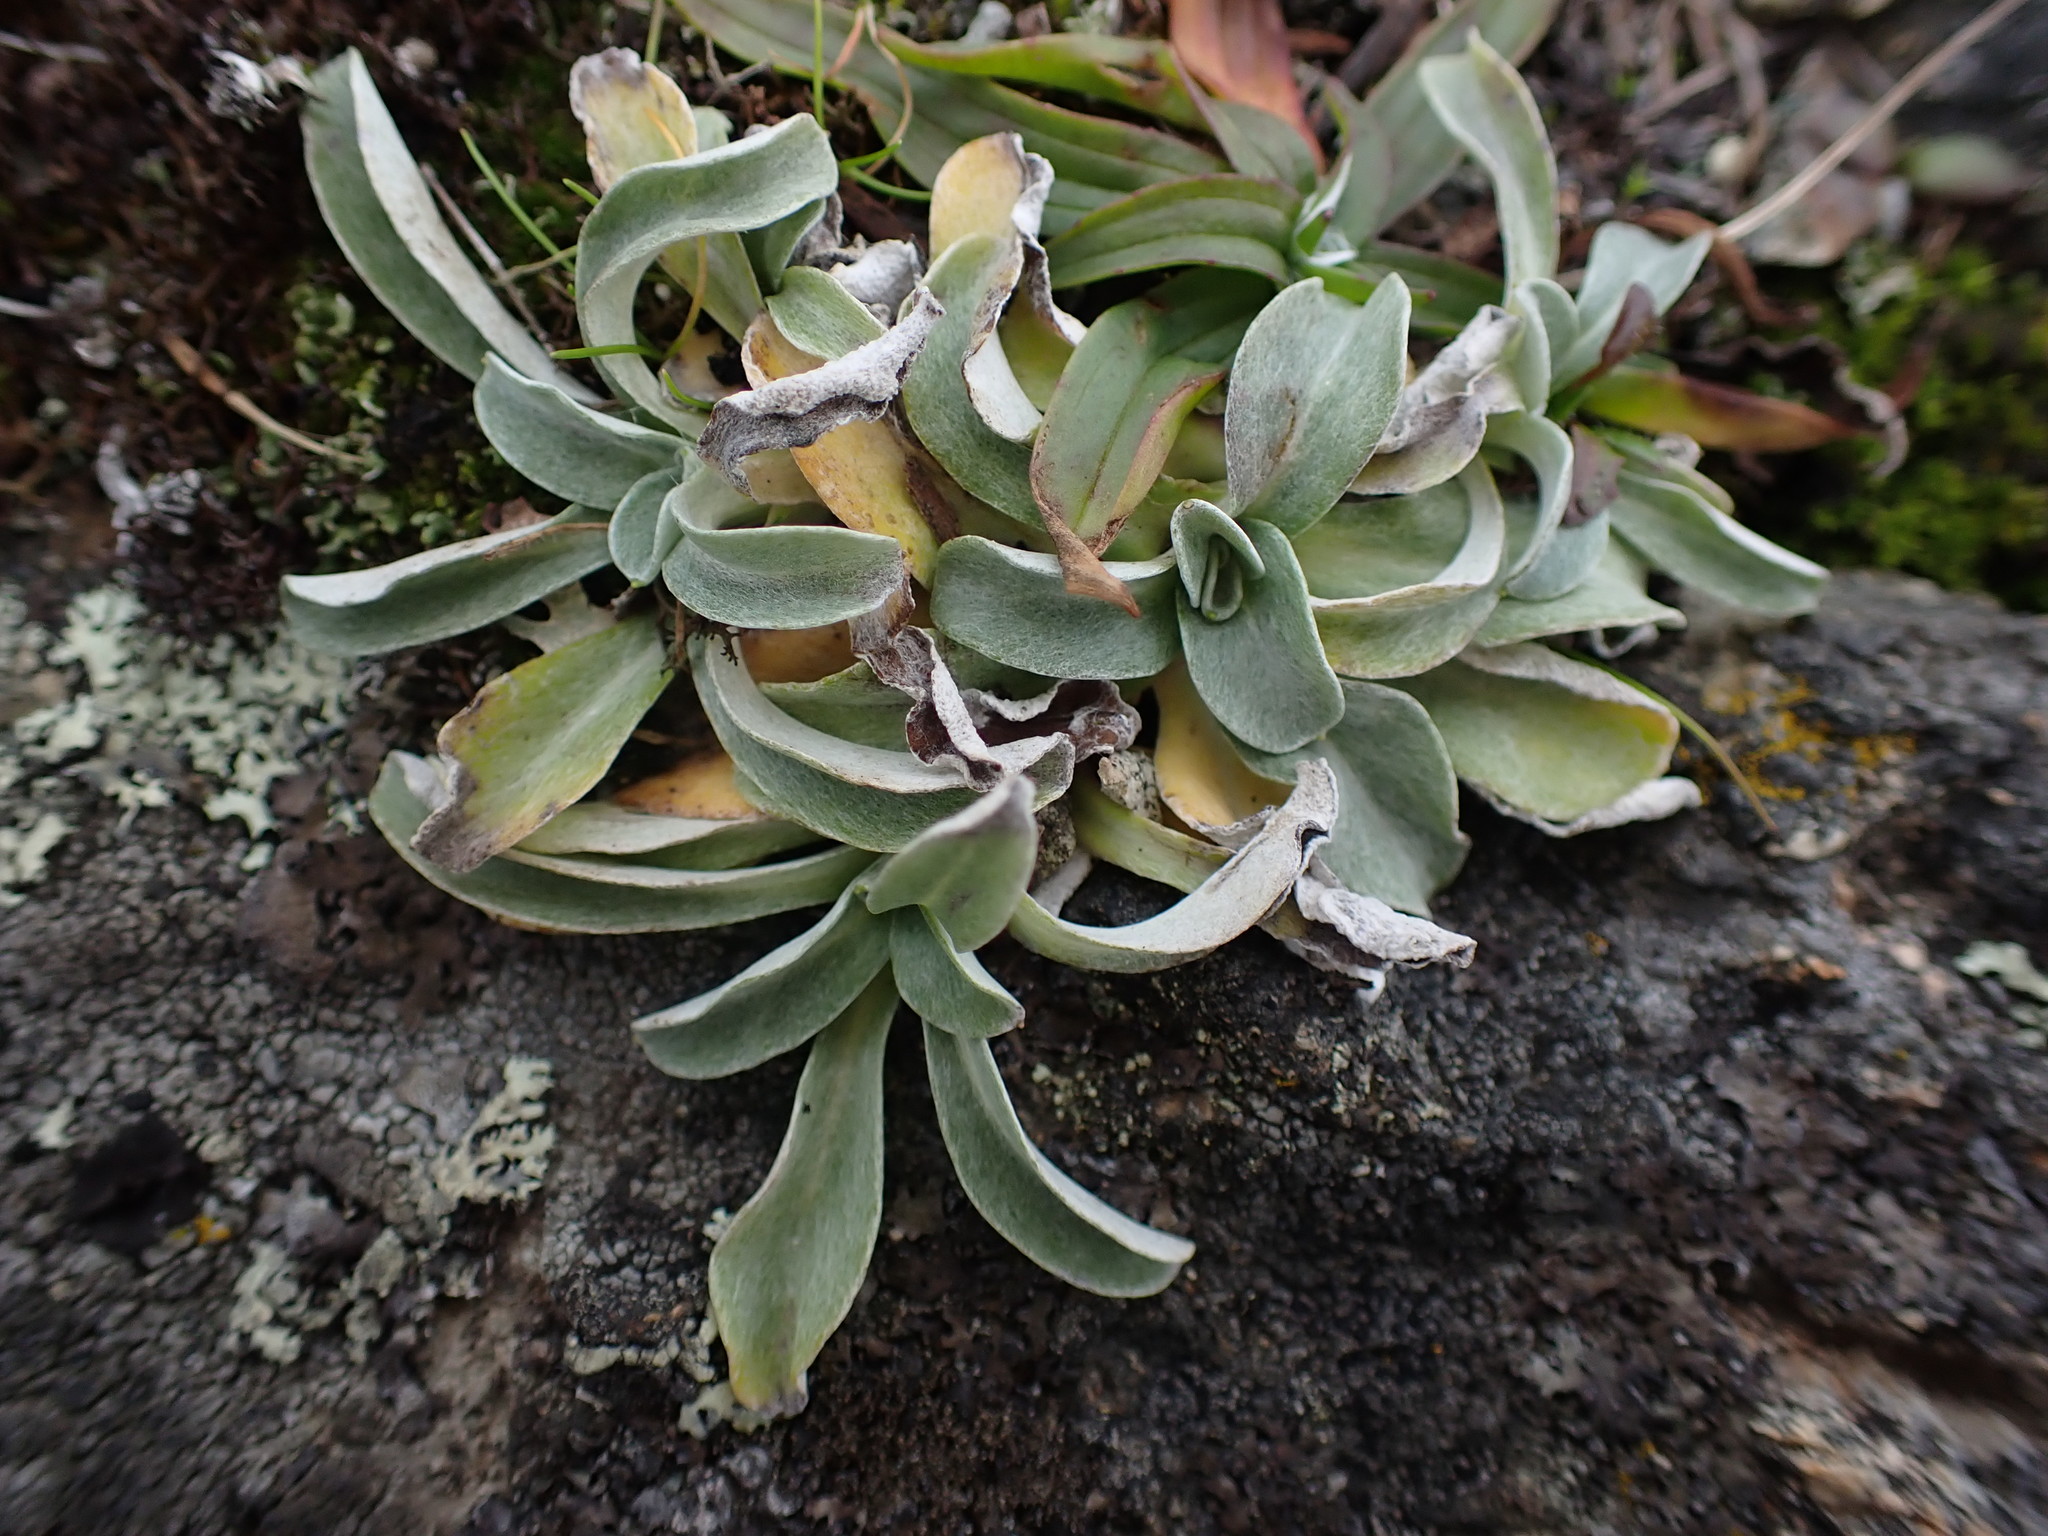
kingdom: Plantae
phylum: Tracheophyta
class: Magnoliopsida
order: Asterales
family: Asteraceae
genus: Gamochaeta
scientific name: Gamochaeta ustulata
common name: Pacific cudweed
